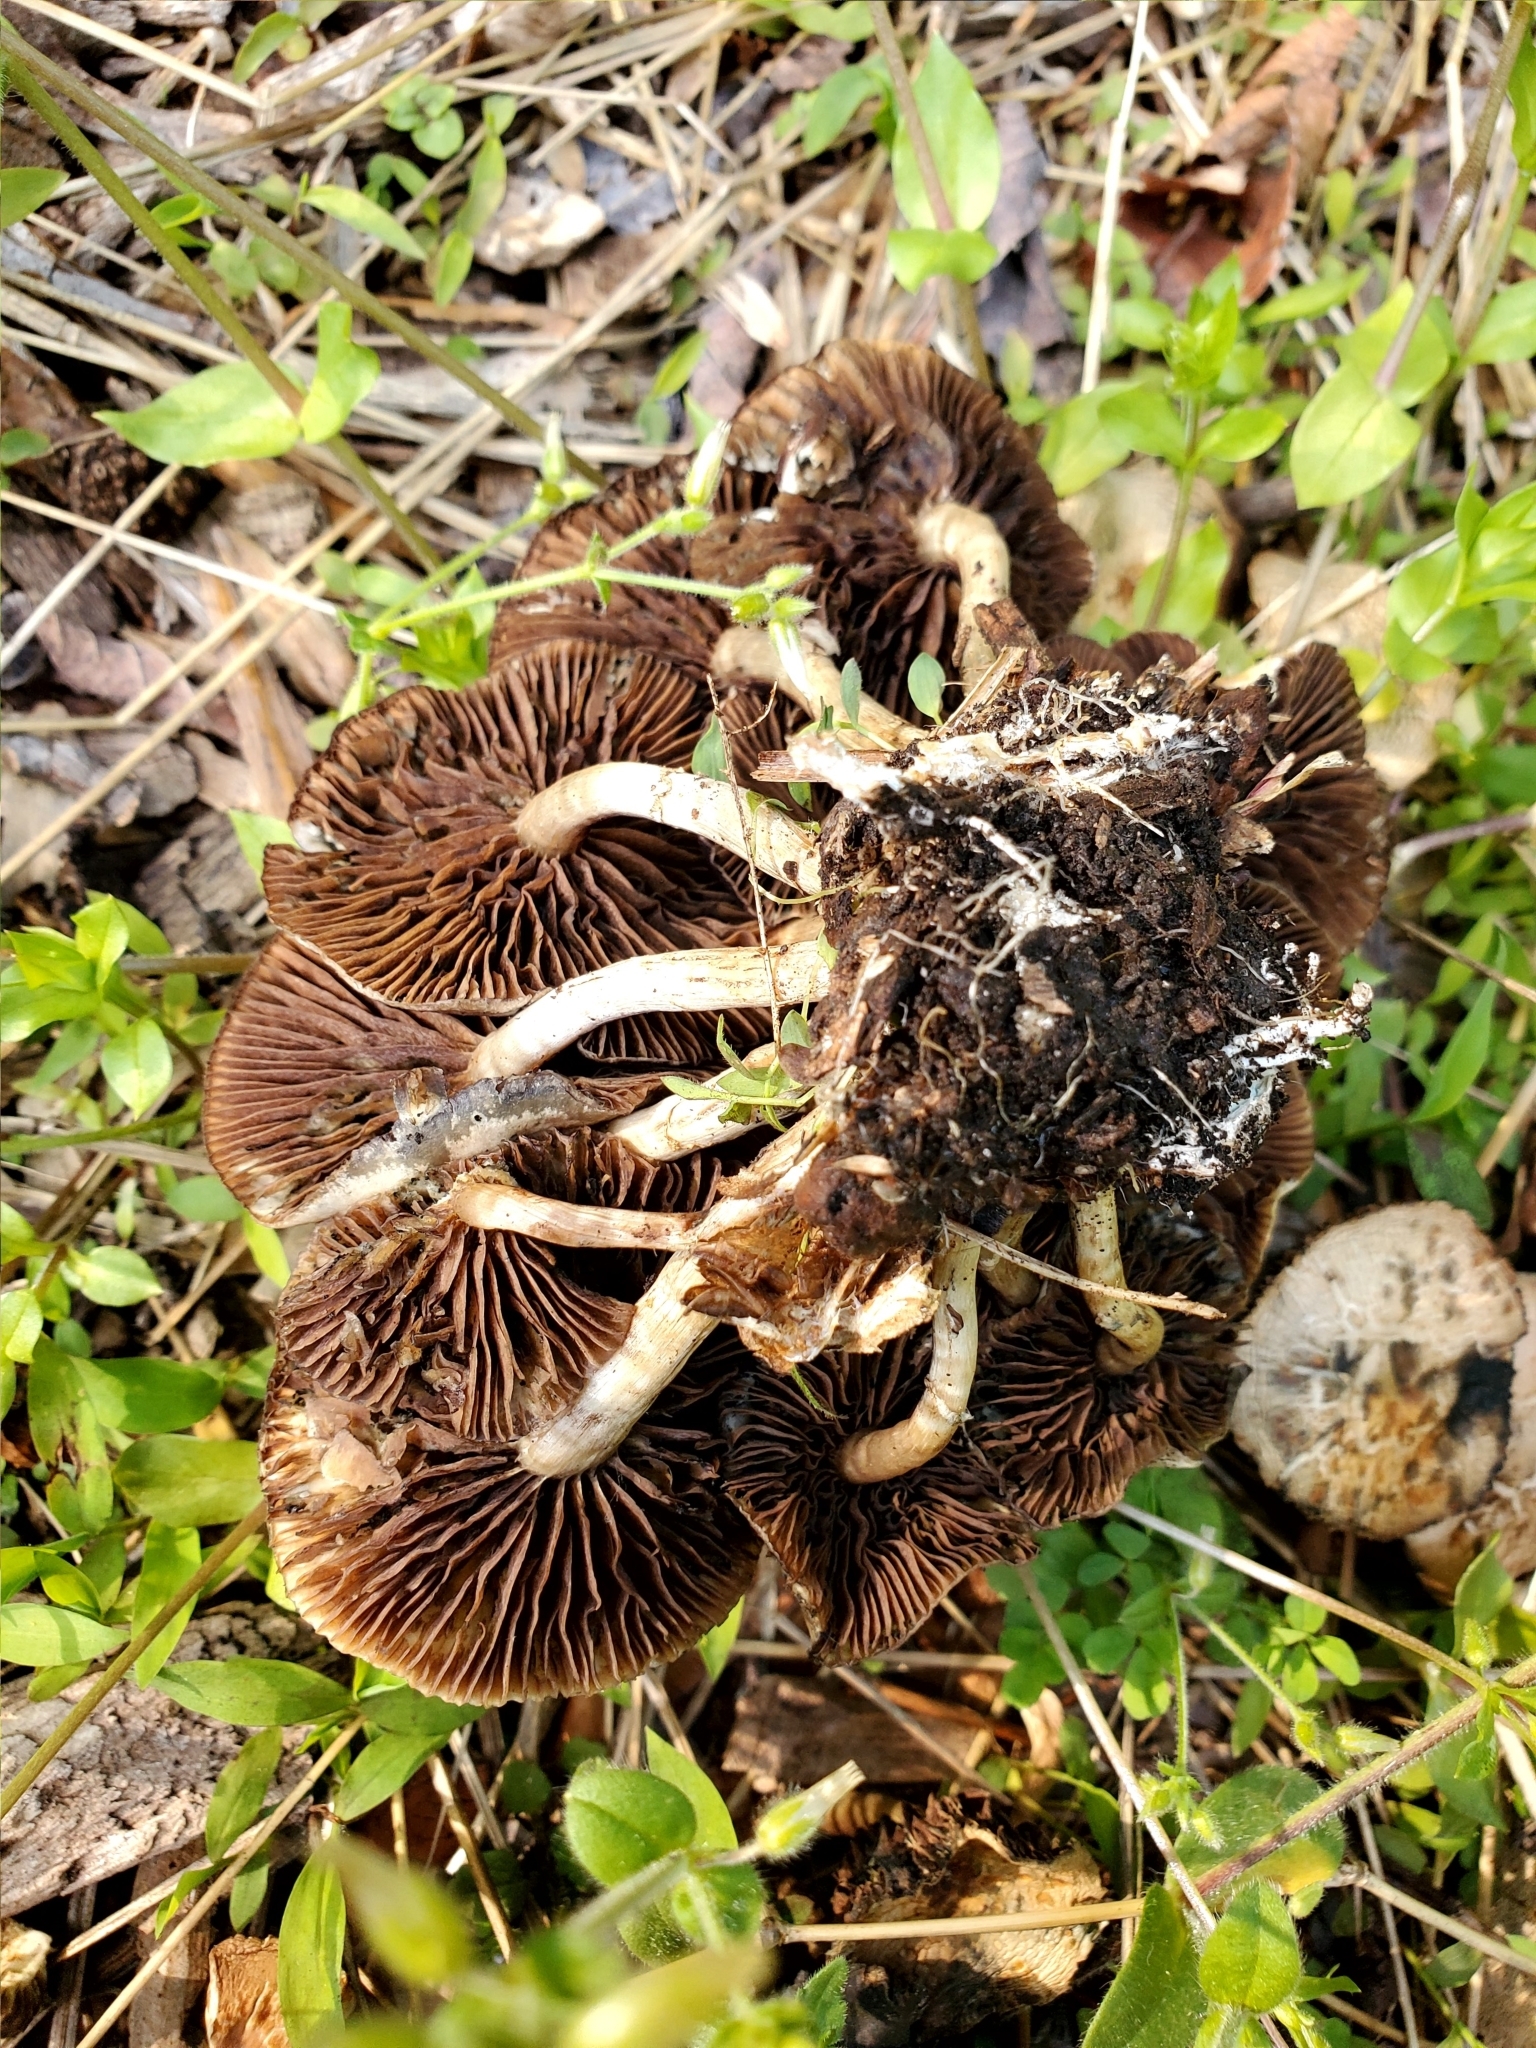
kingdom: Fungi
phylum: Basidiomycota
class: Agaricomycetes
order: Agaricales
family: Hymenogastraceae
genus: Psilocybe
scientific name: Psilocybe ovoideocystidiata
